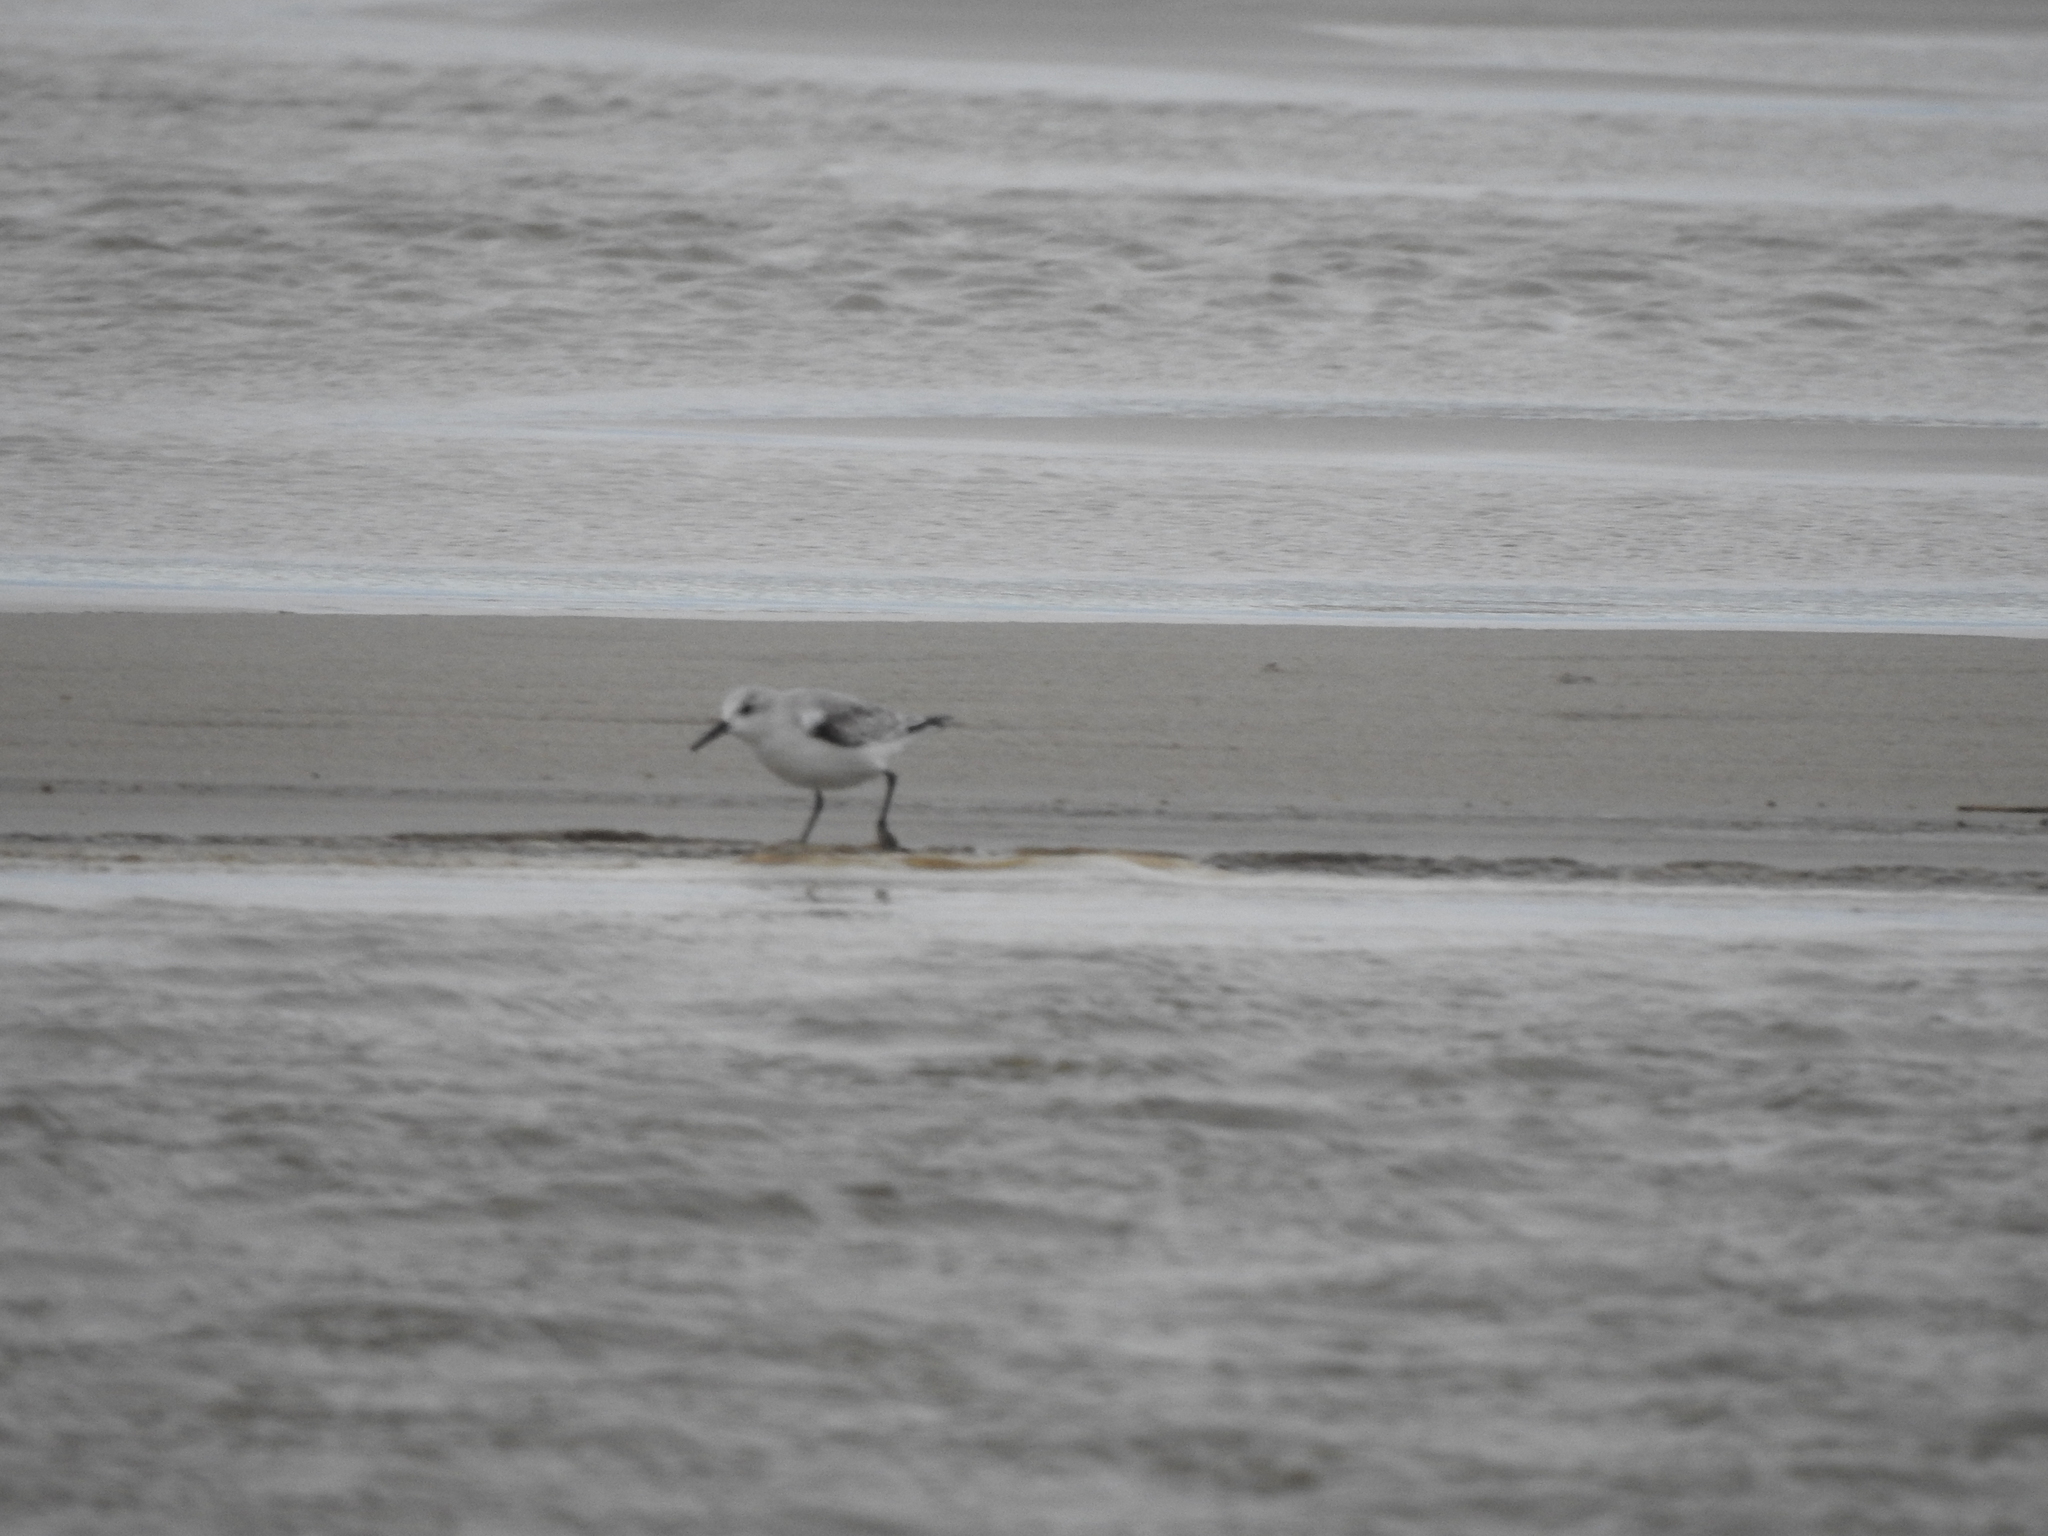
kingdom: Animalia
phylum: Chordata
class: Aves
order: Charadriiformes
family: Scolopacidae
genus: Calidris
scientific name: Calidris alba
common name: Sanderling
